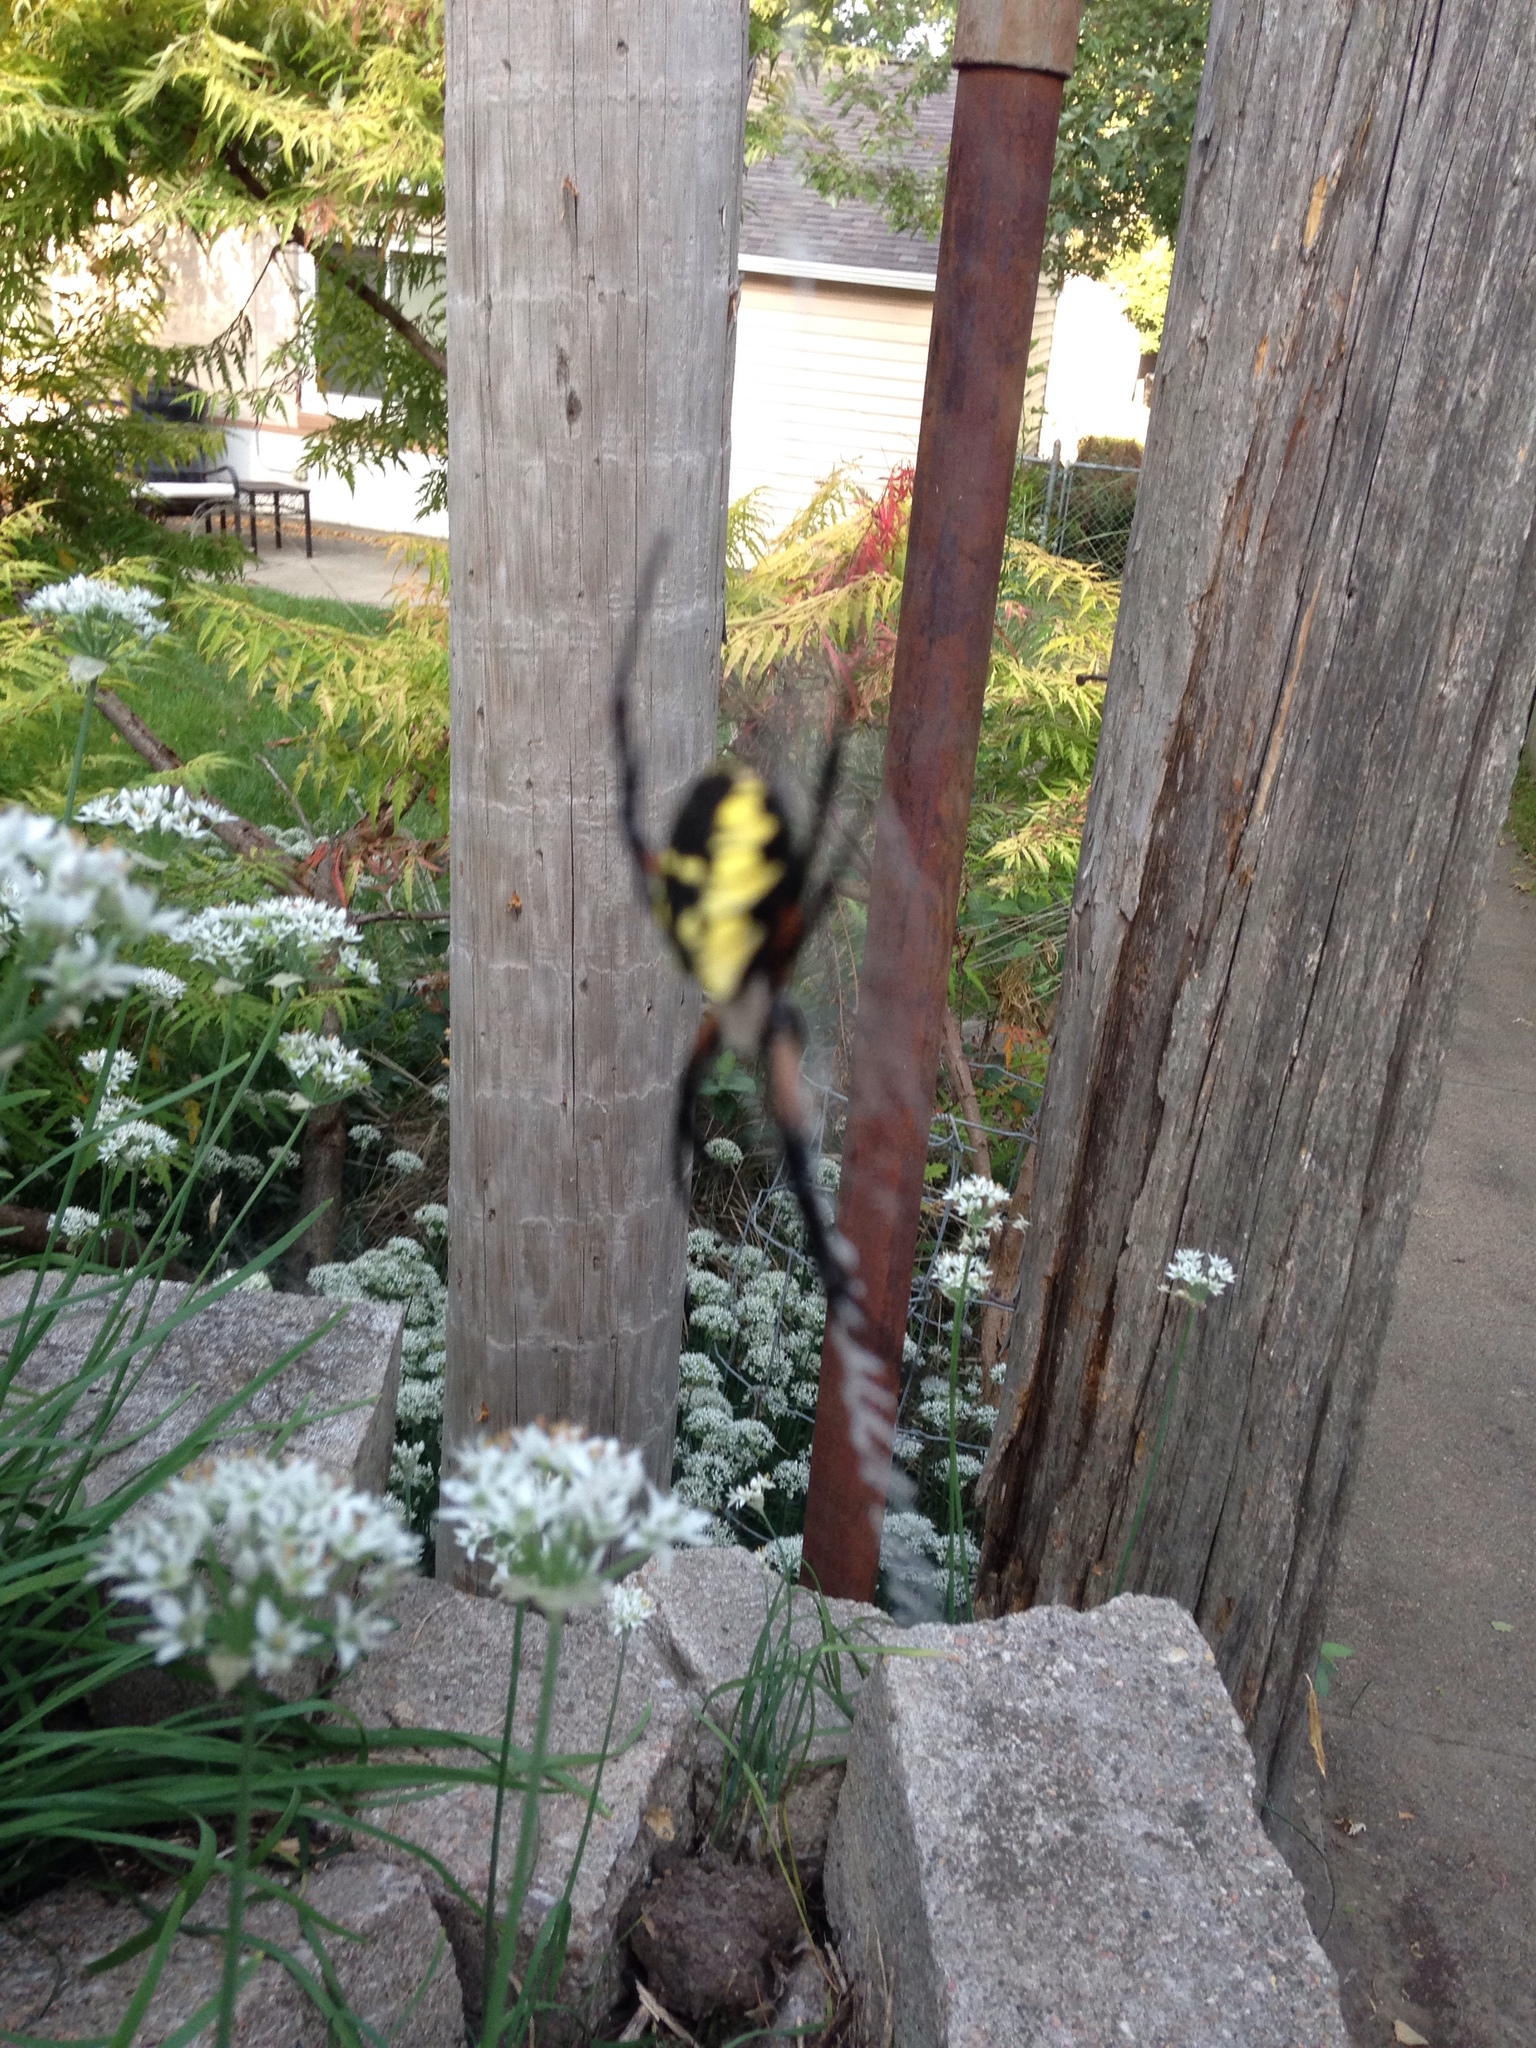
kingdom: Animalia
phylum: Arthropoda
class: Arachnida
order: Araneae
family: Araneidae
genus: Argiope
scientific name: Argiope aurantia
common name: Orb weavers
